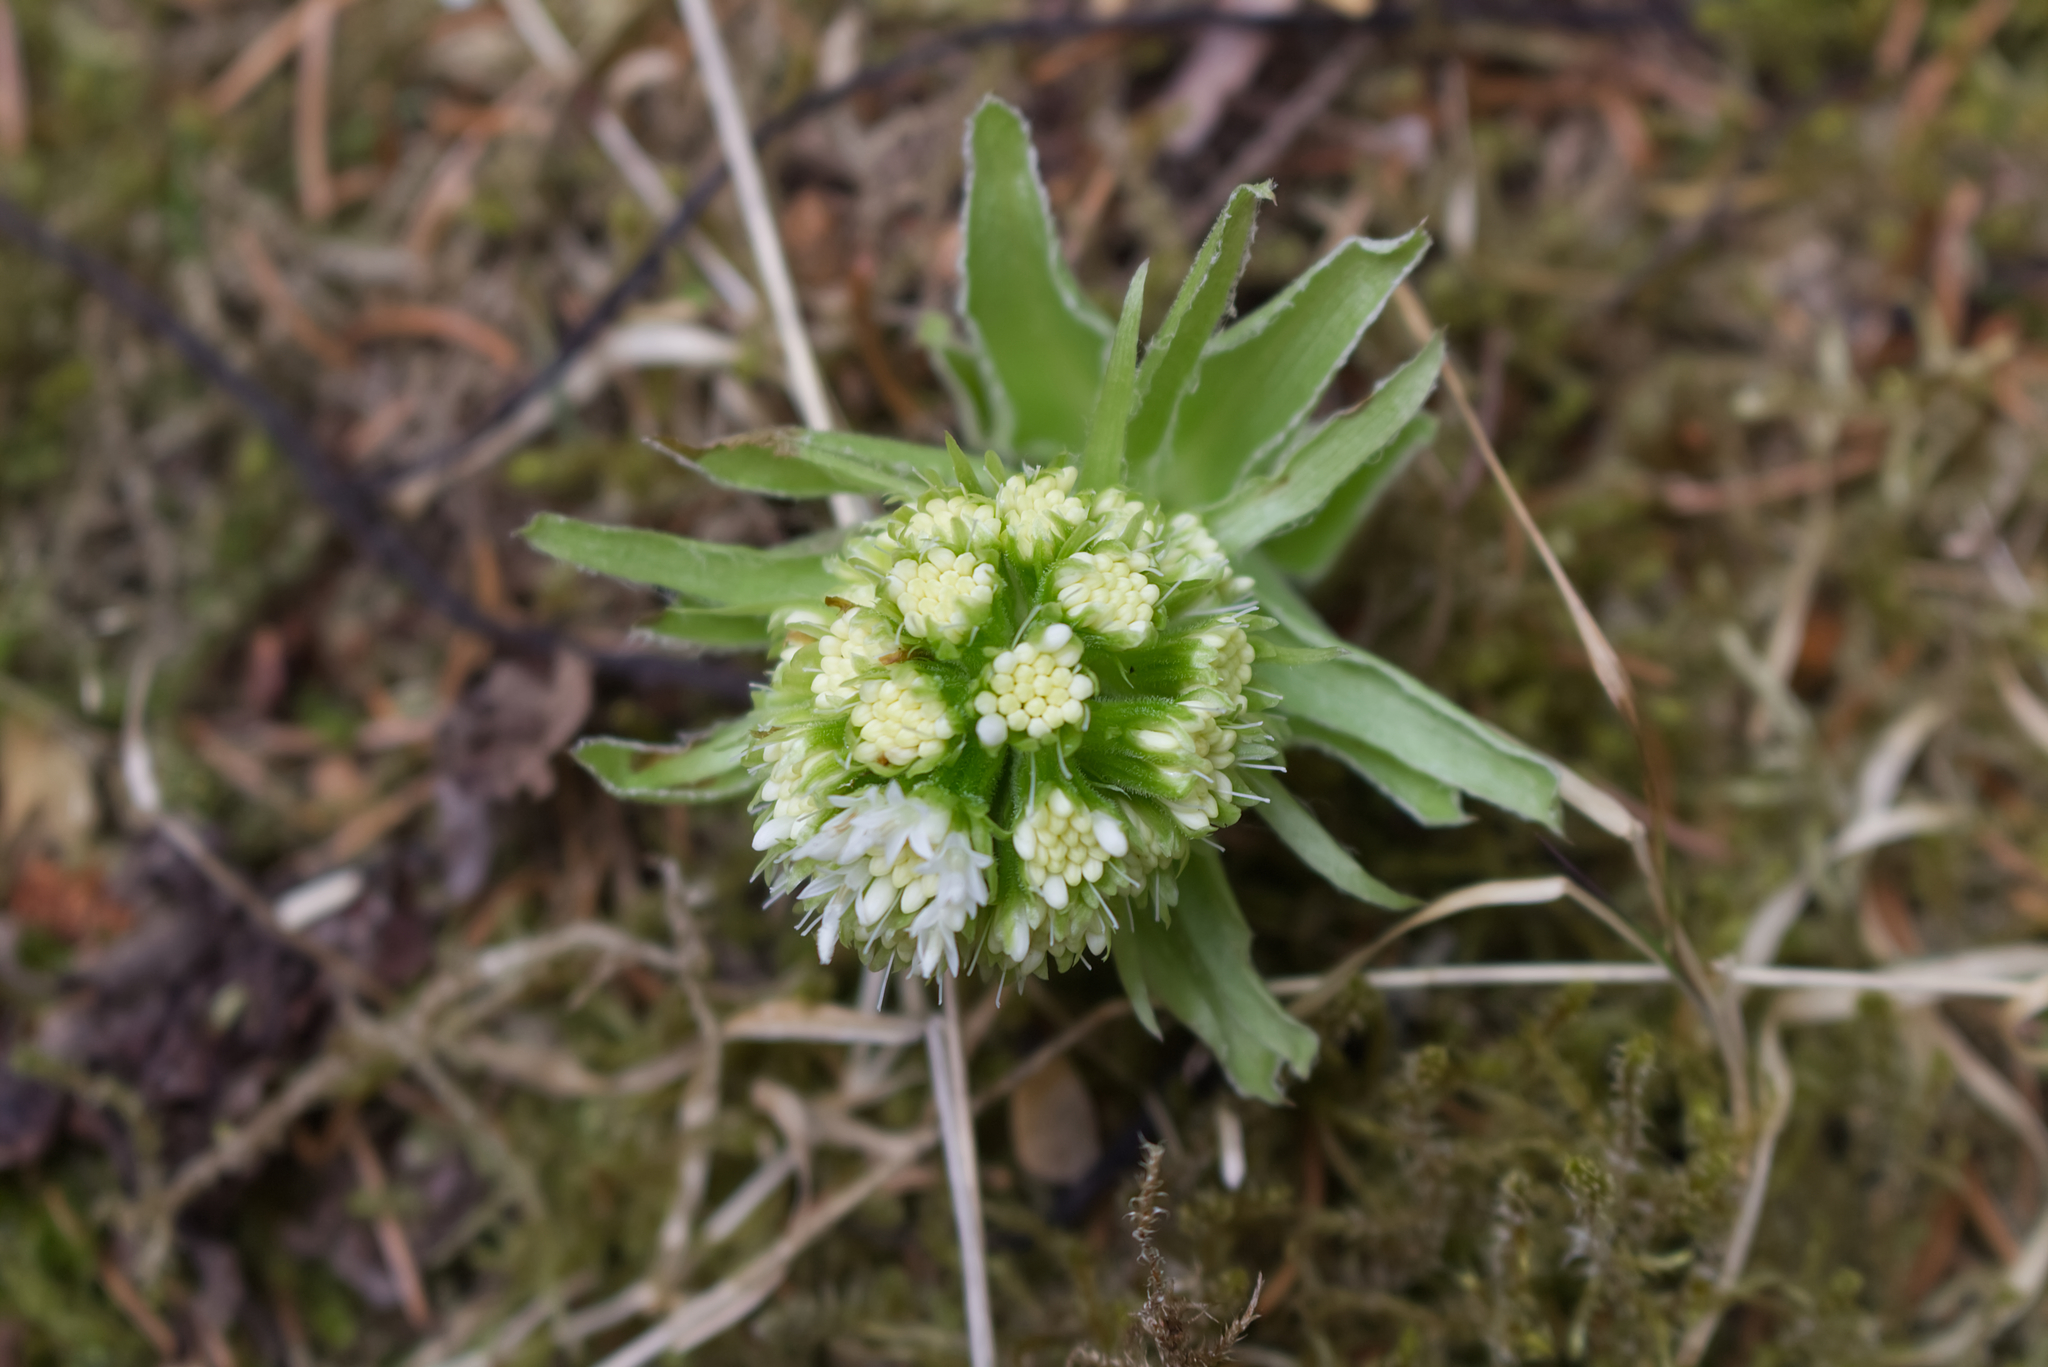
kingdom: Plantae
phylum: Tracheophyta
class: Magnoliopsida
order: Asterales
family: Asteraceae
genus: Petasites
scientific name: Petasites albus
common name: White butterbur
